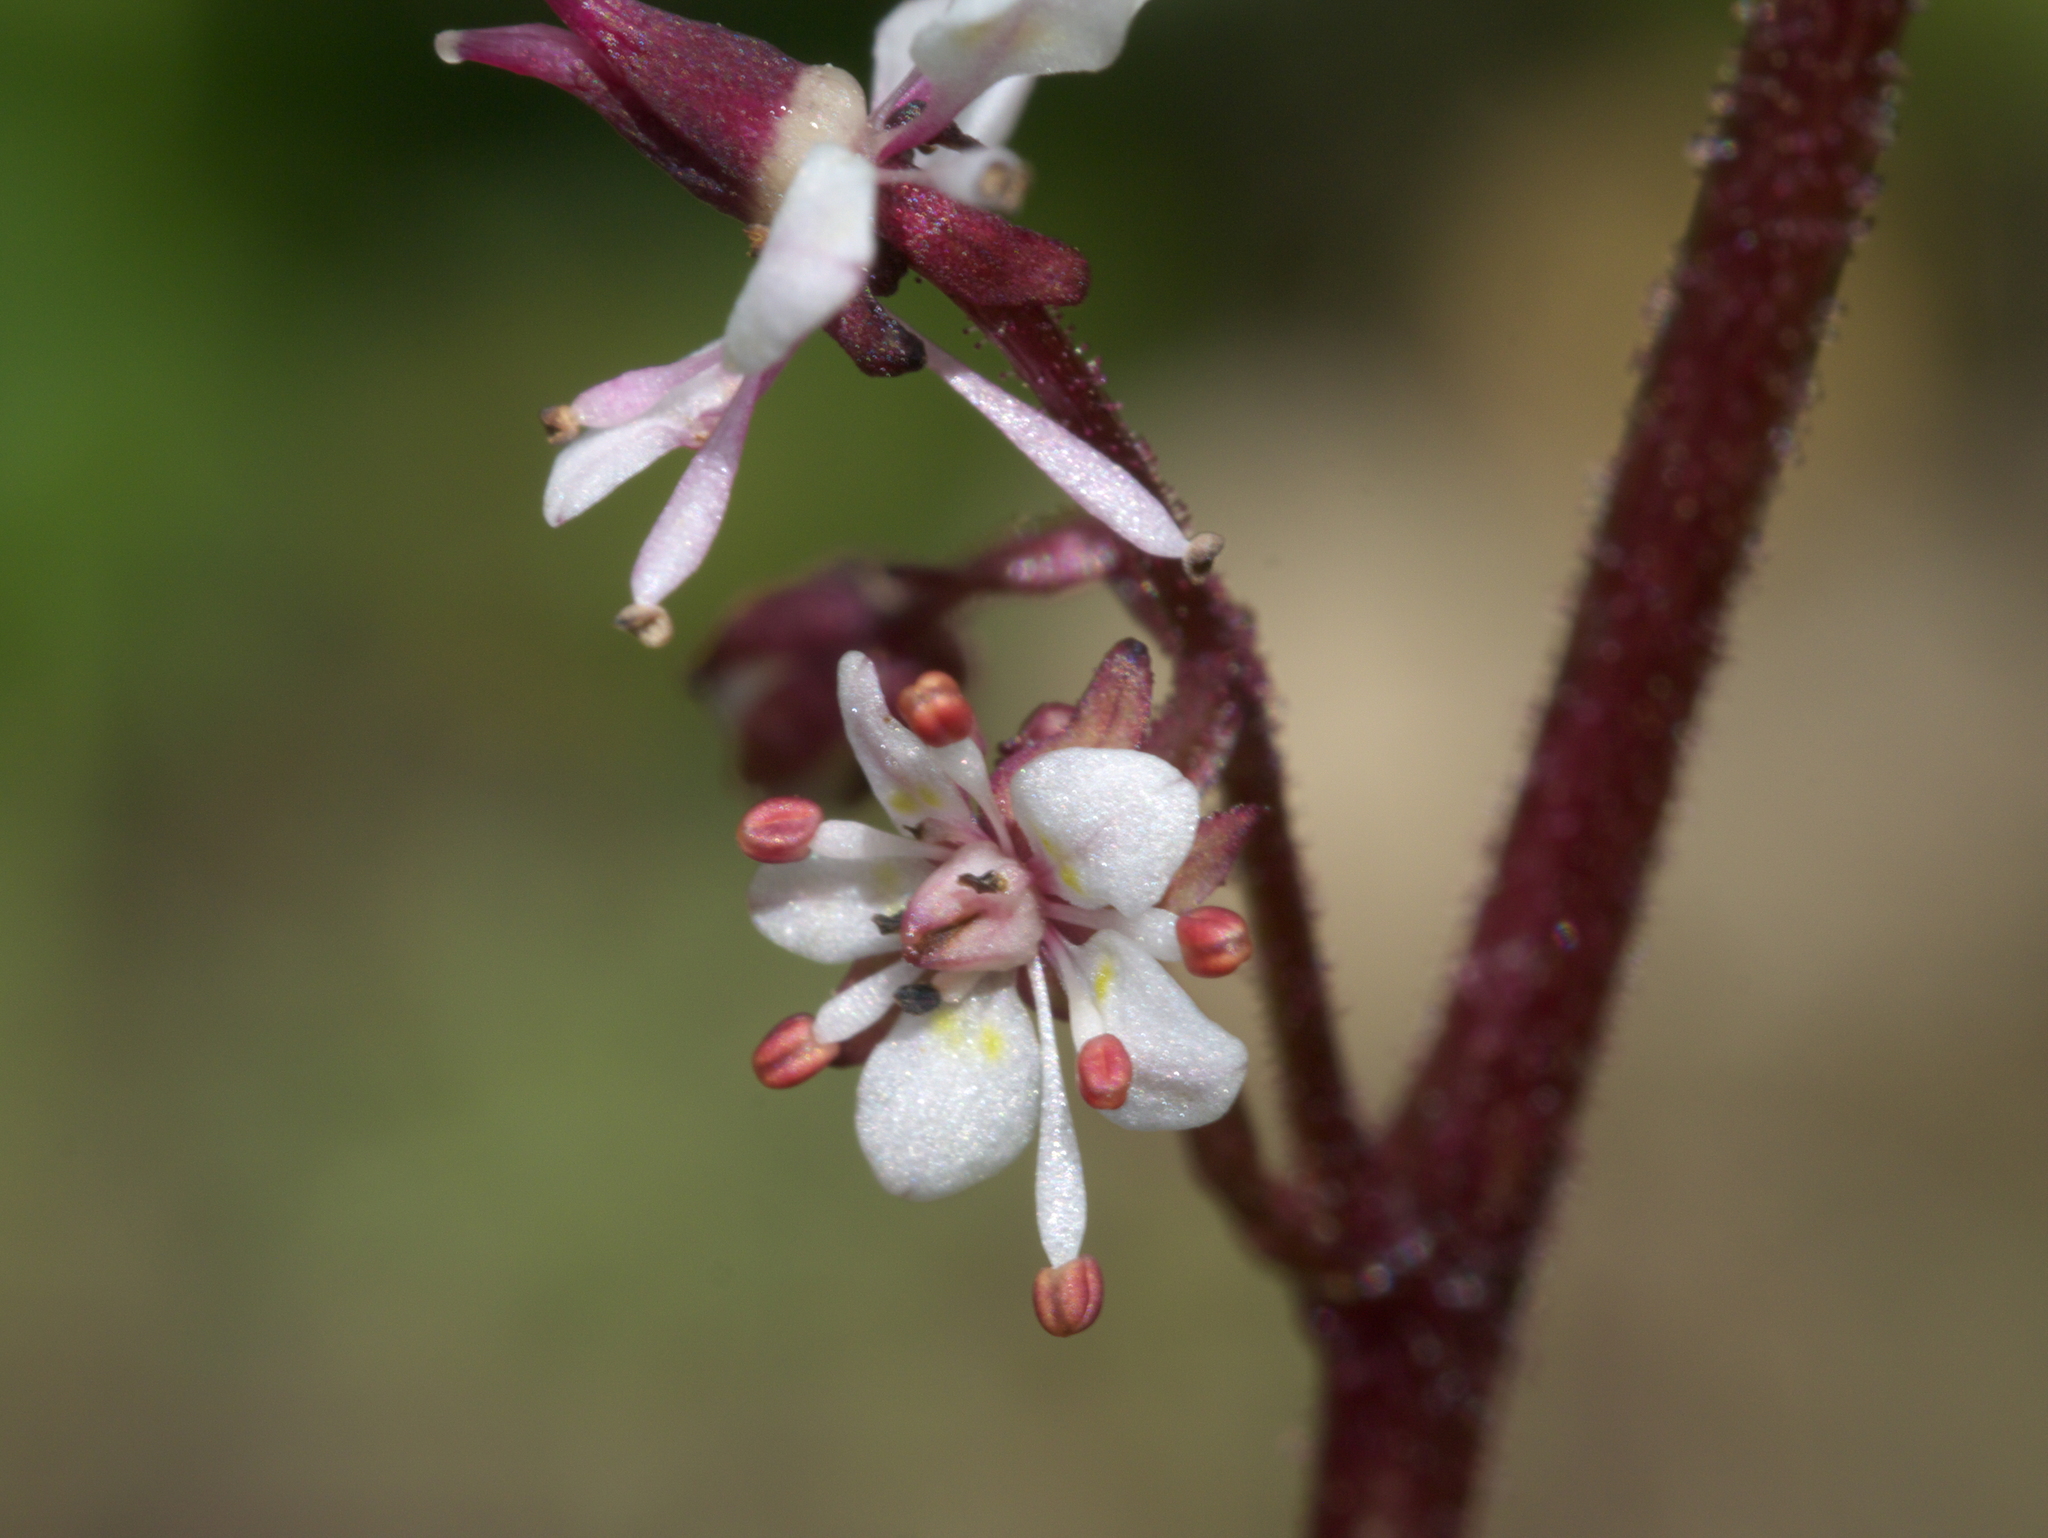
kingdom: Plantae
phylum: Tracheophyta
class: Magnoliopsida
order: Saxifragales
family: Saxifragaceae
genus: Micranthes
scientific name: Micranthes odontoloma
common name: Brook saxifrage
